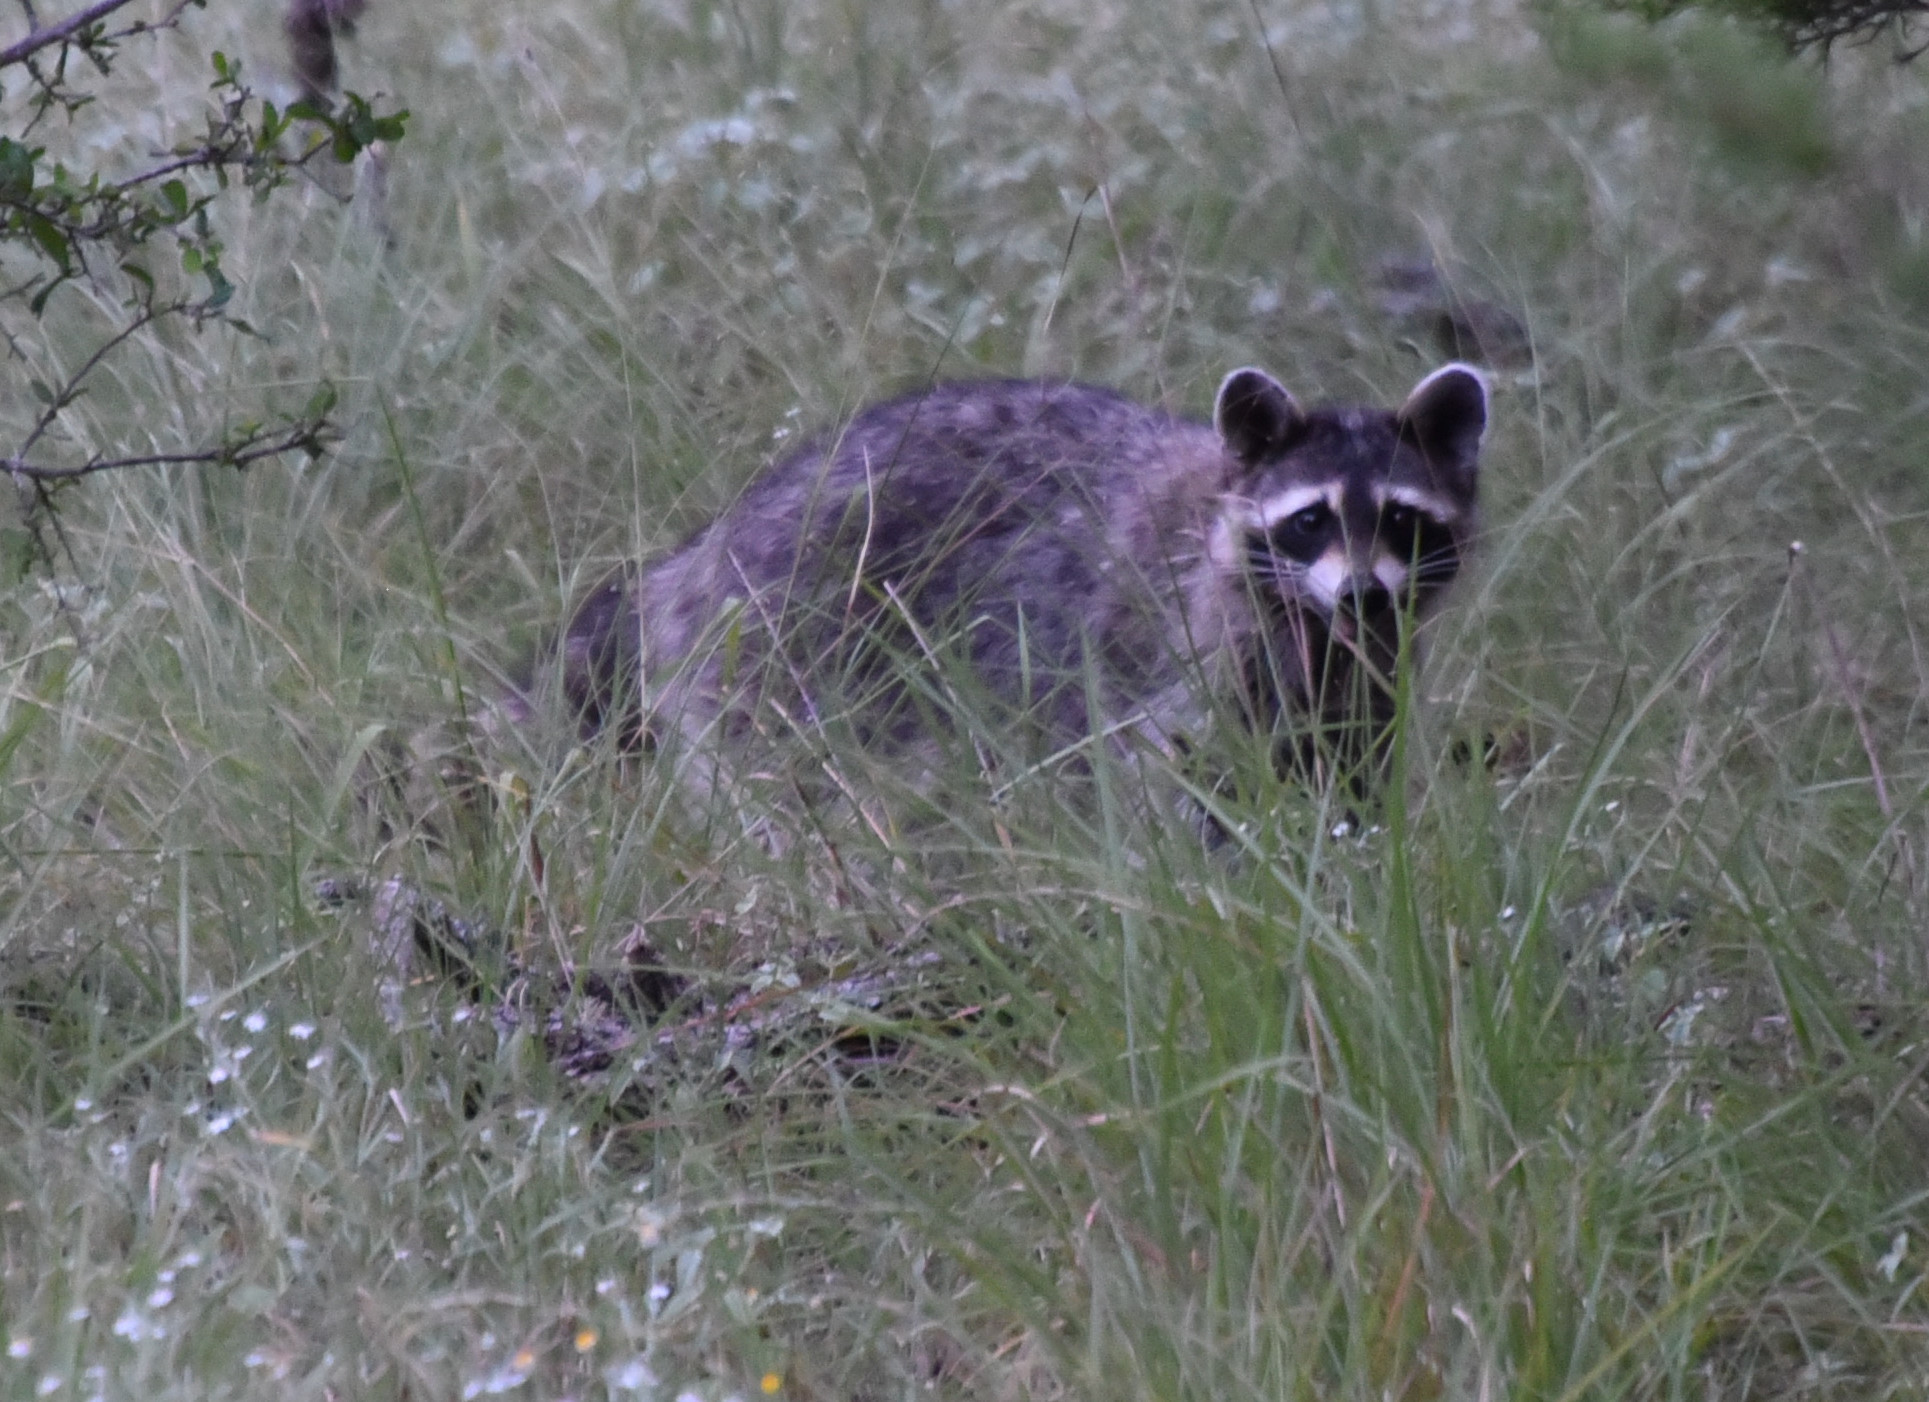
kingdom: Animalia
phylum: Chordata
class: Mammalia
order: Carnivora
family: Procyonidae
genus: Procyon
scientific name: Procyon lotor
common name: Raccoon
